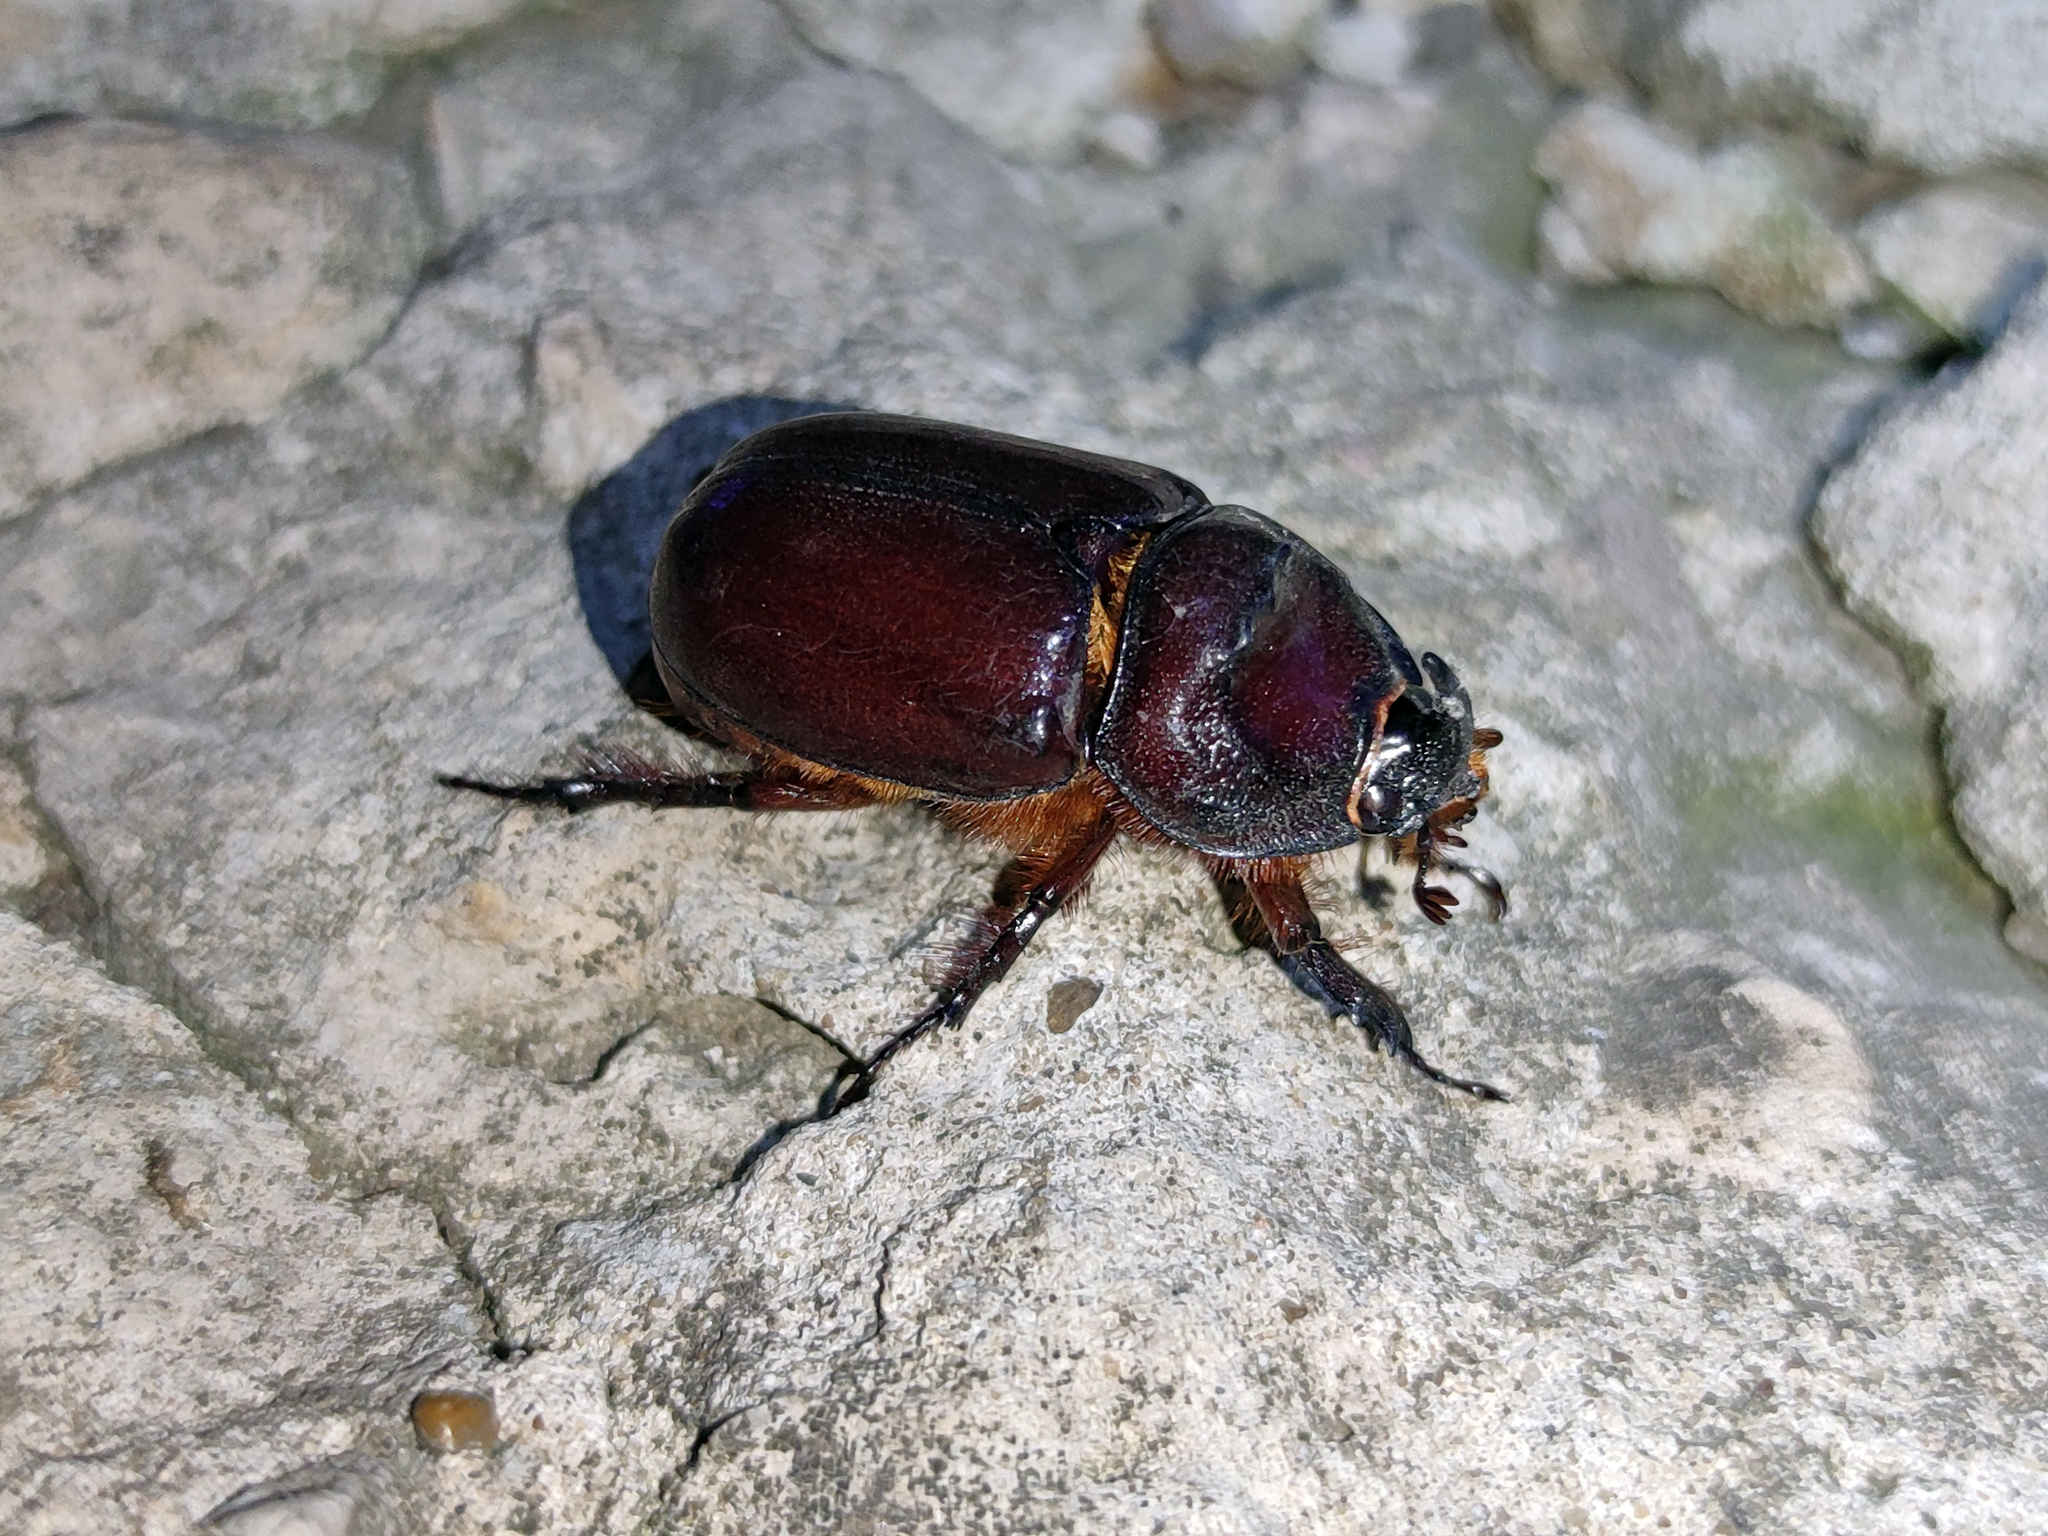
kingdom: Animalia
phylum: Arthropoda
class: Insecta
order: Coleoptera
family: Scarabaeidae
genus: Oryctes
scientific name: Oryctes nasicornis
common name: European rhinoceros beetle
